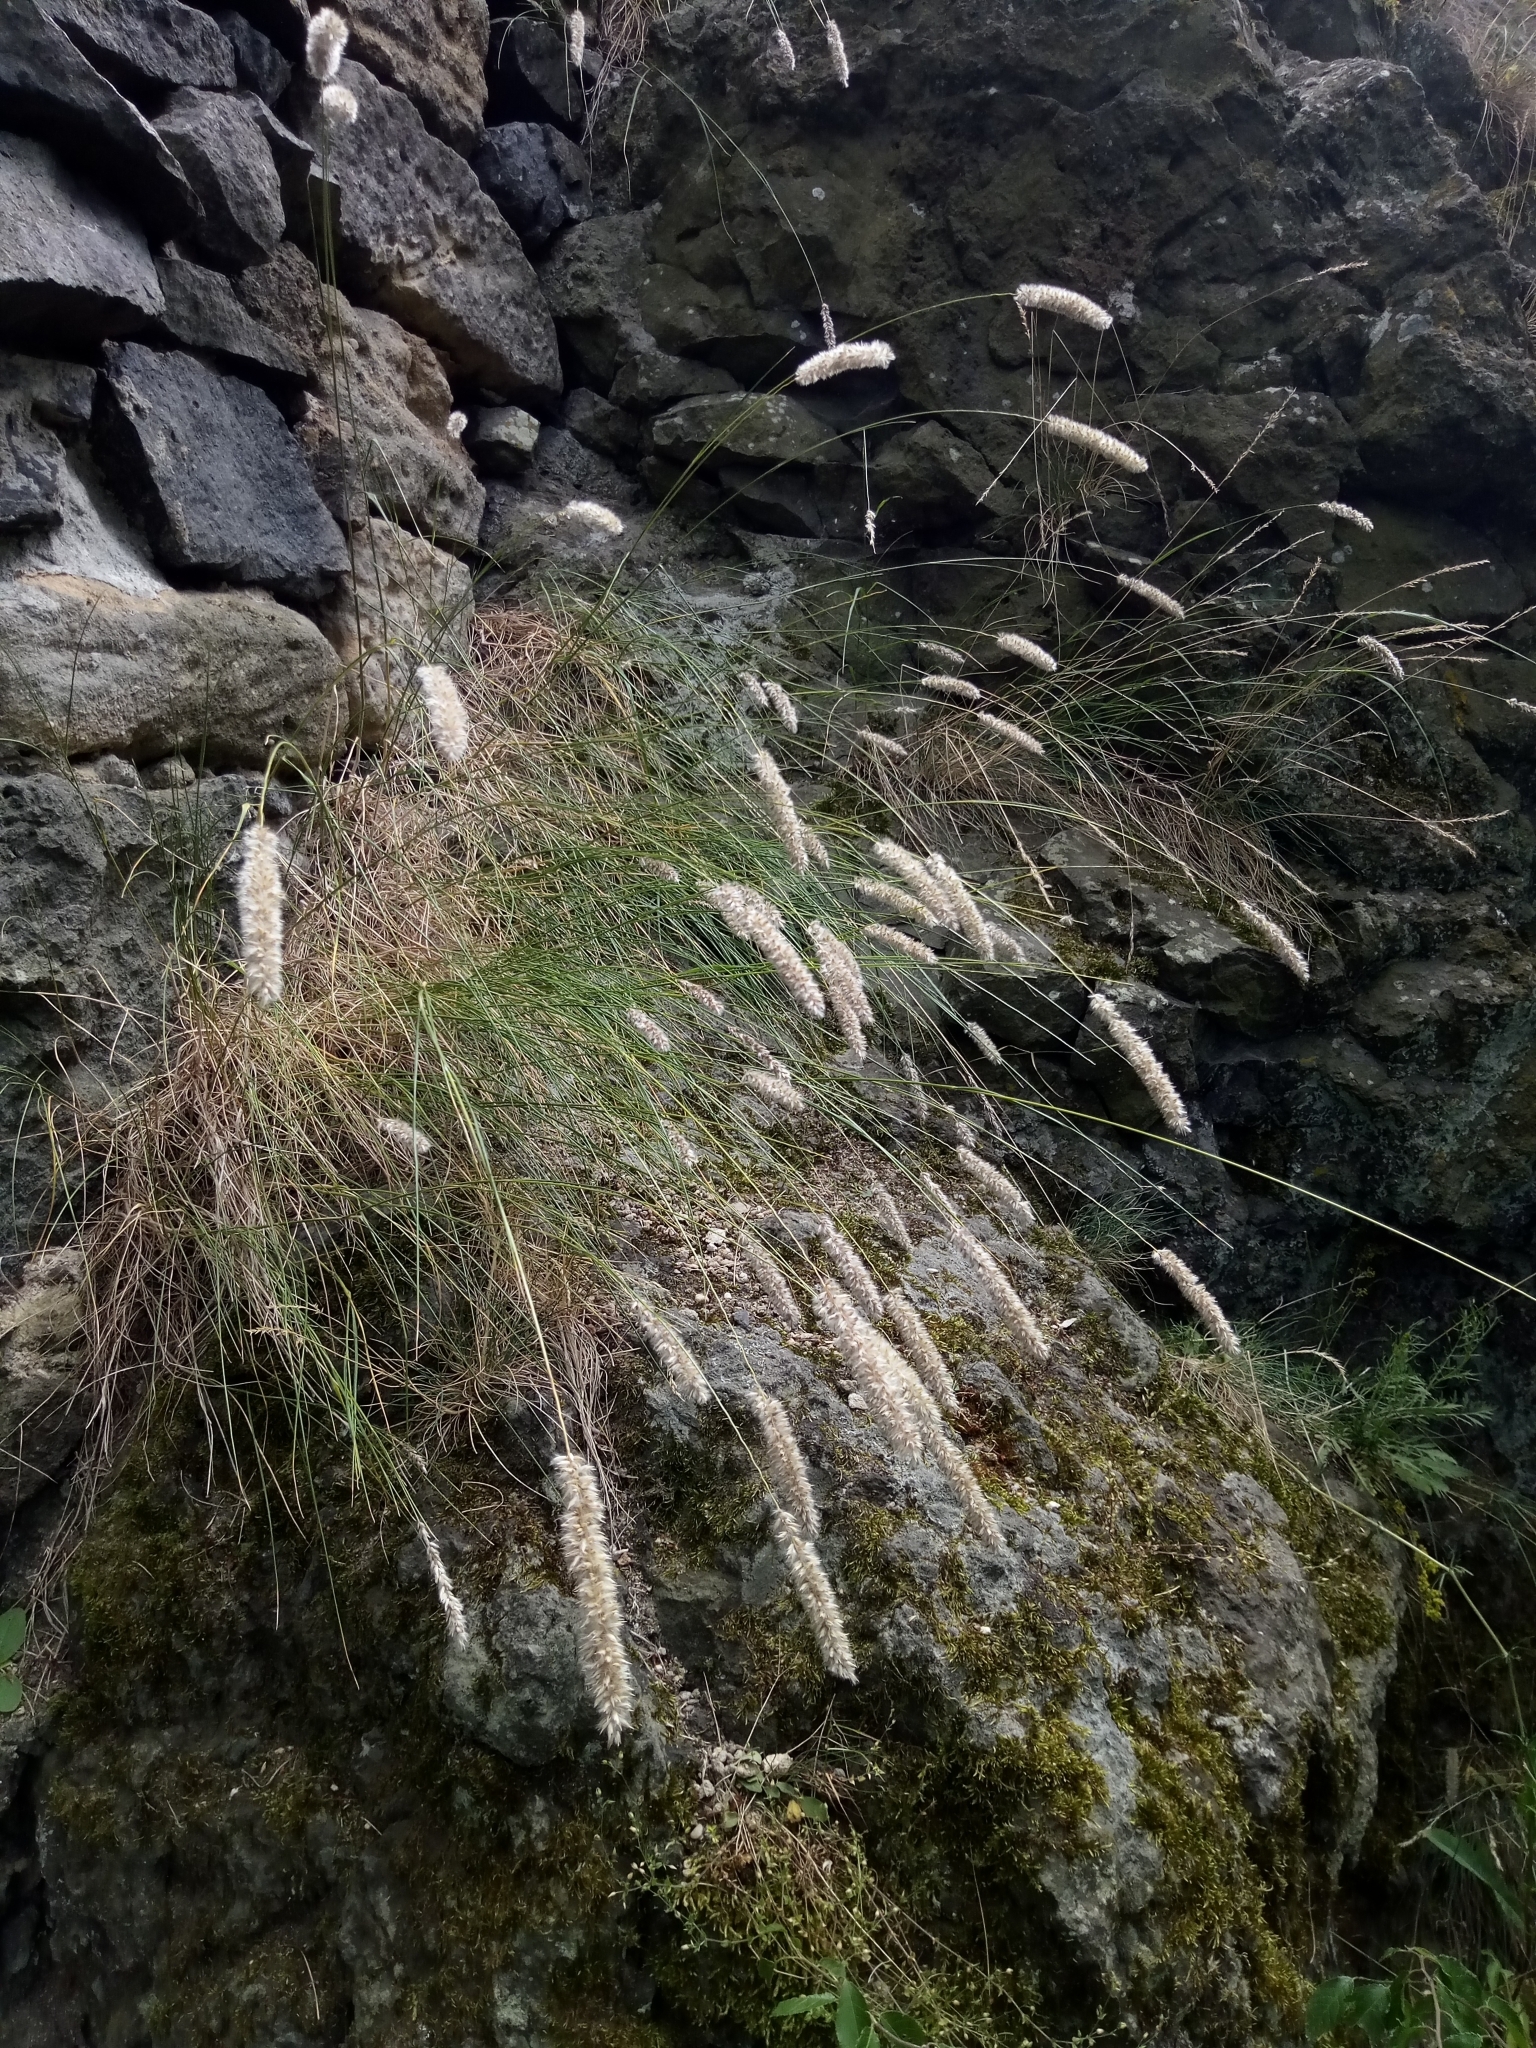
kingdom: Plantae
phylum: Tracheophyta
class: Liliopsida
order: Poales
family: Poaceae
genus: Melica
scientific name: Melica transsilvanica
